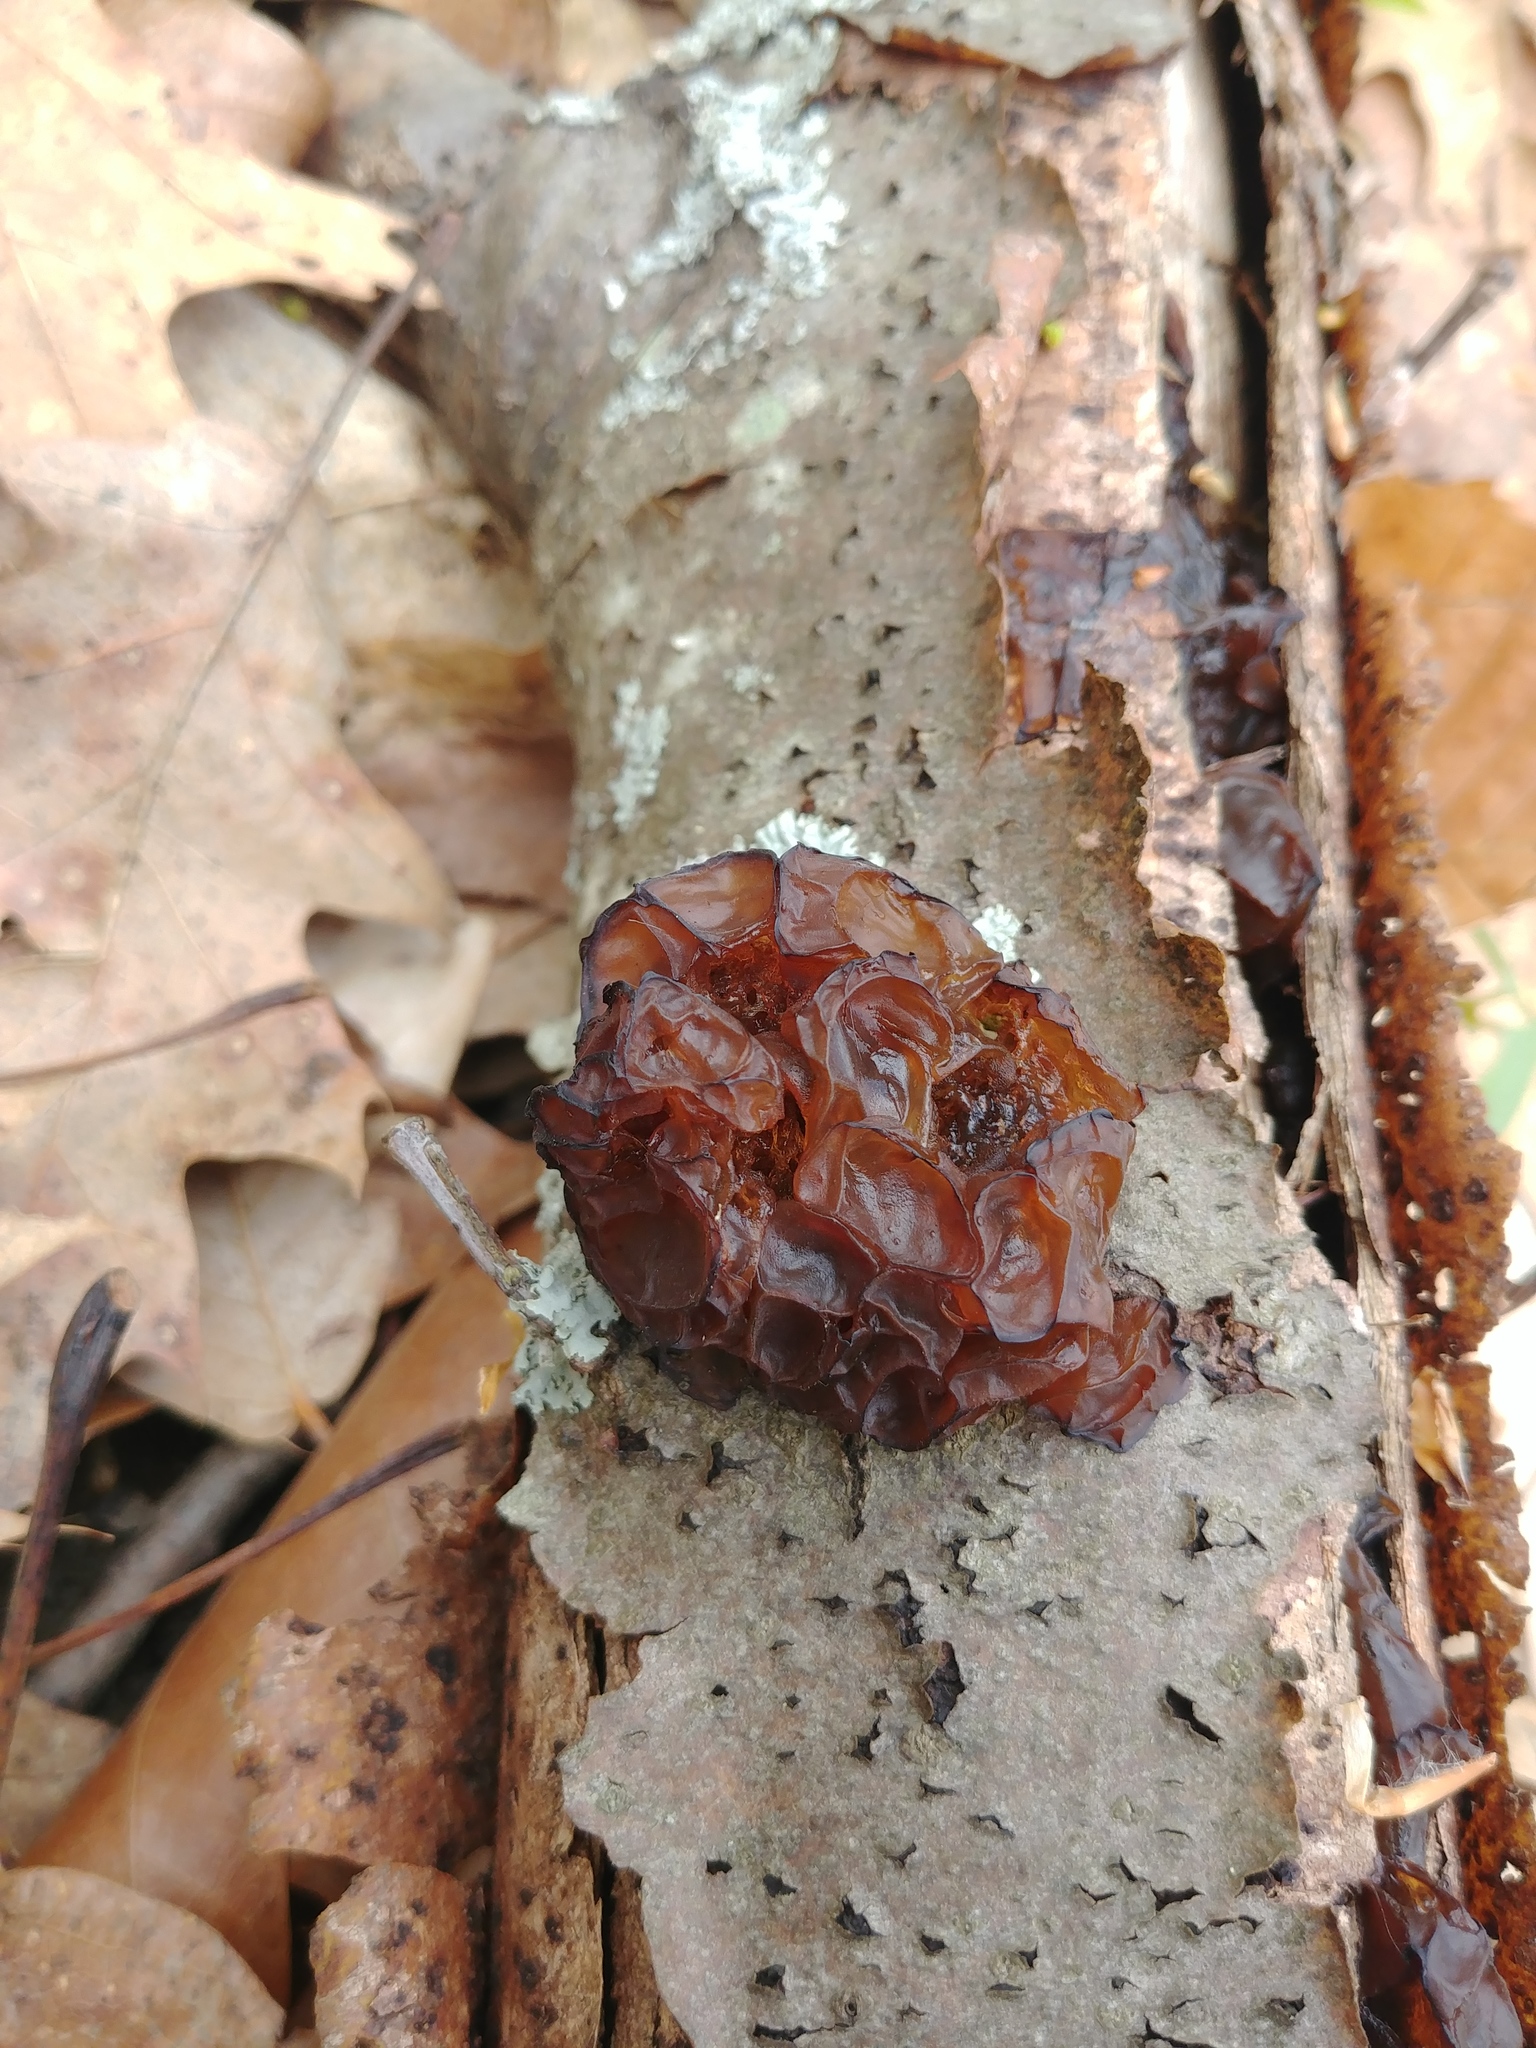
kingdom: Fungi
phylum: Basidiomycota
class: Agaricomycetes
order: Auriculariales
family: Auriculariaceae
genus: Exidia
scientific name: Exidia
